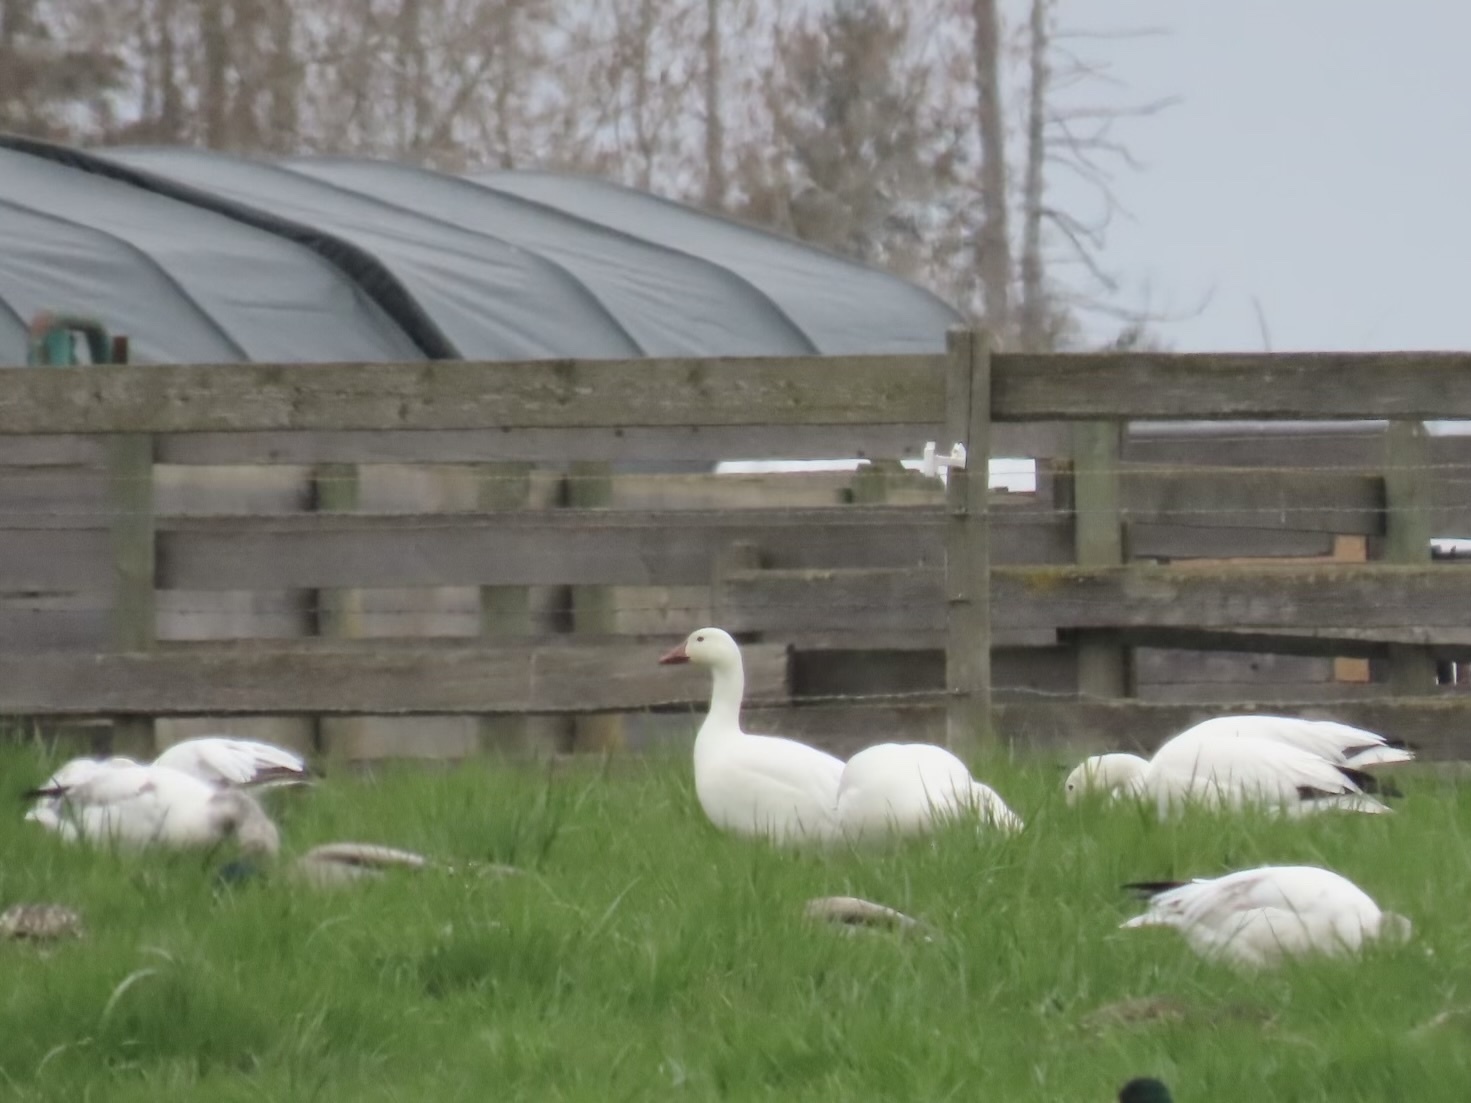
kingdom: Animalia
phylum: Chordata
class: Aves
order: Anseriformes
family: Anatidae
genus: Anser
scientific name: Anser caerulescens
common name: Snow goose
